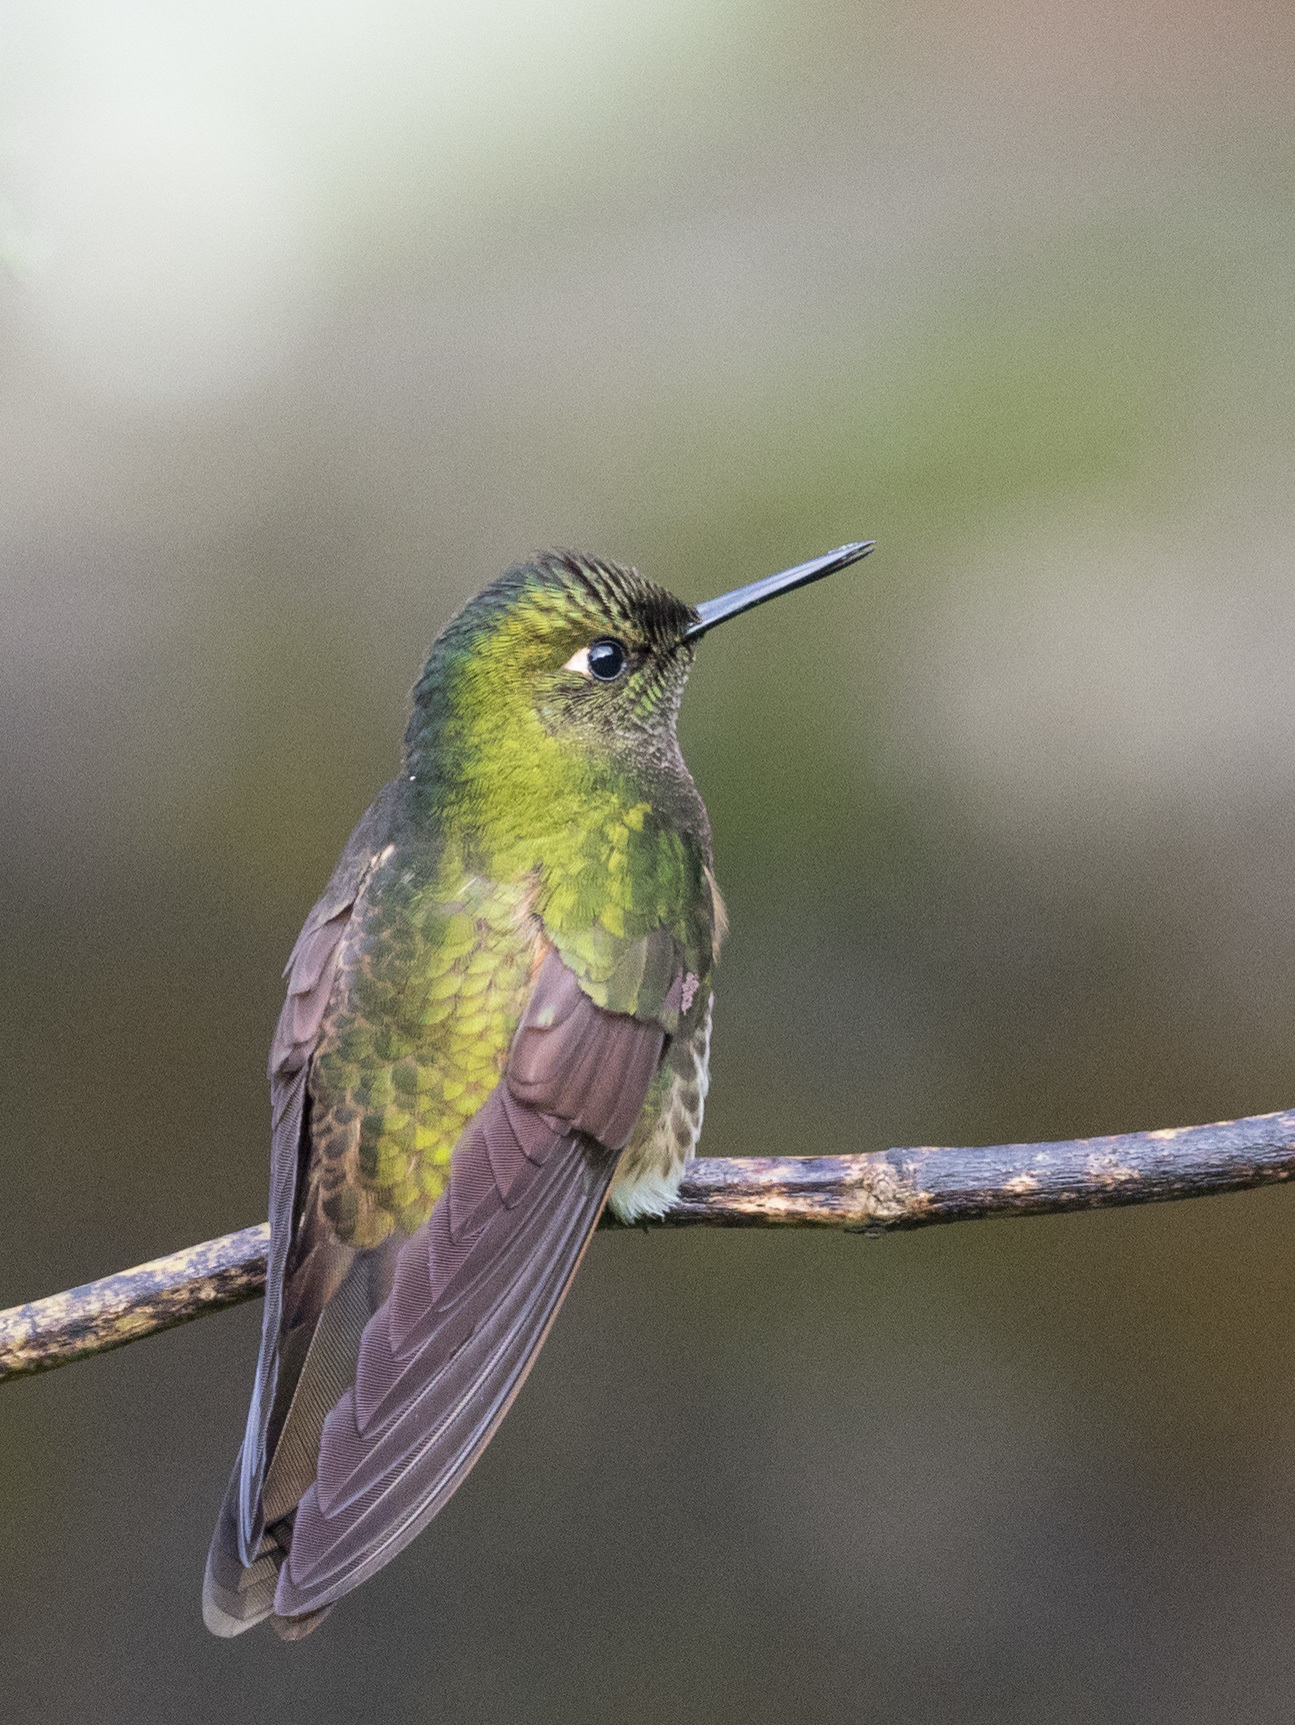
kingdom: Animalia
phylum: Chordata
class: Aves
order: Apodiformes
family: Trochilidae
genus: Boissonneaua
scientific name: Boissonneaua flavescens
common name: Buff-tailed coronet
